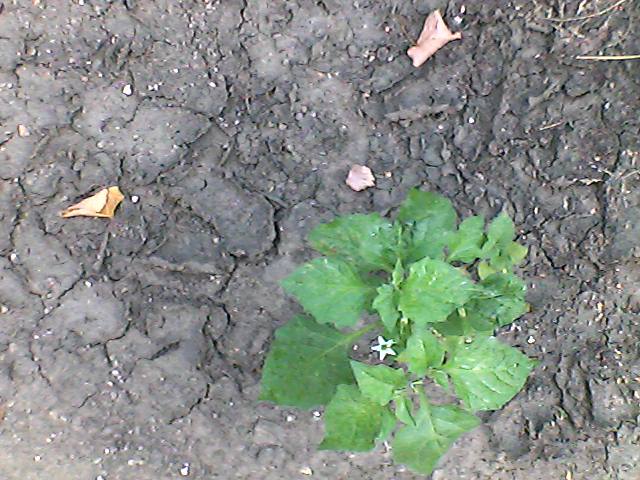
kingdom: Plantae
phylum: Tracheophyta
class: Magnoliopsida
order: Solanales
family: Solanaceae
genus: Solanum
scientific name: Solanum nigrum
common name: Black nightshade
